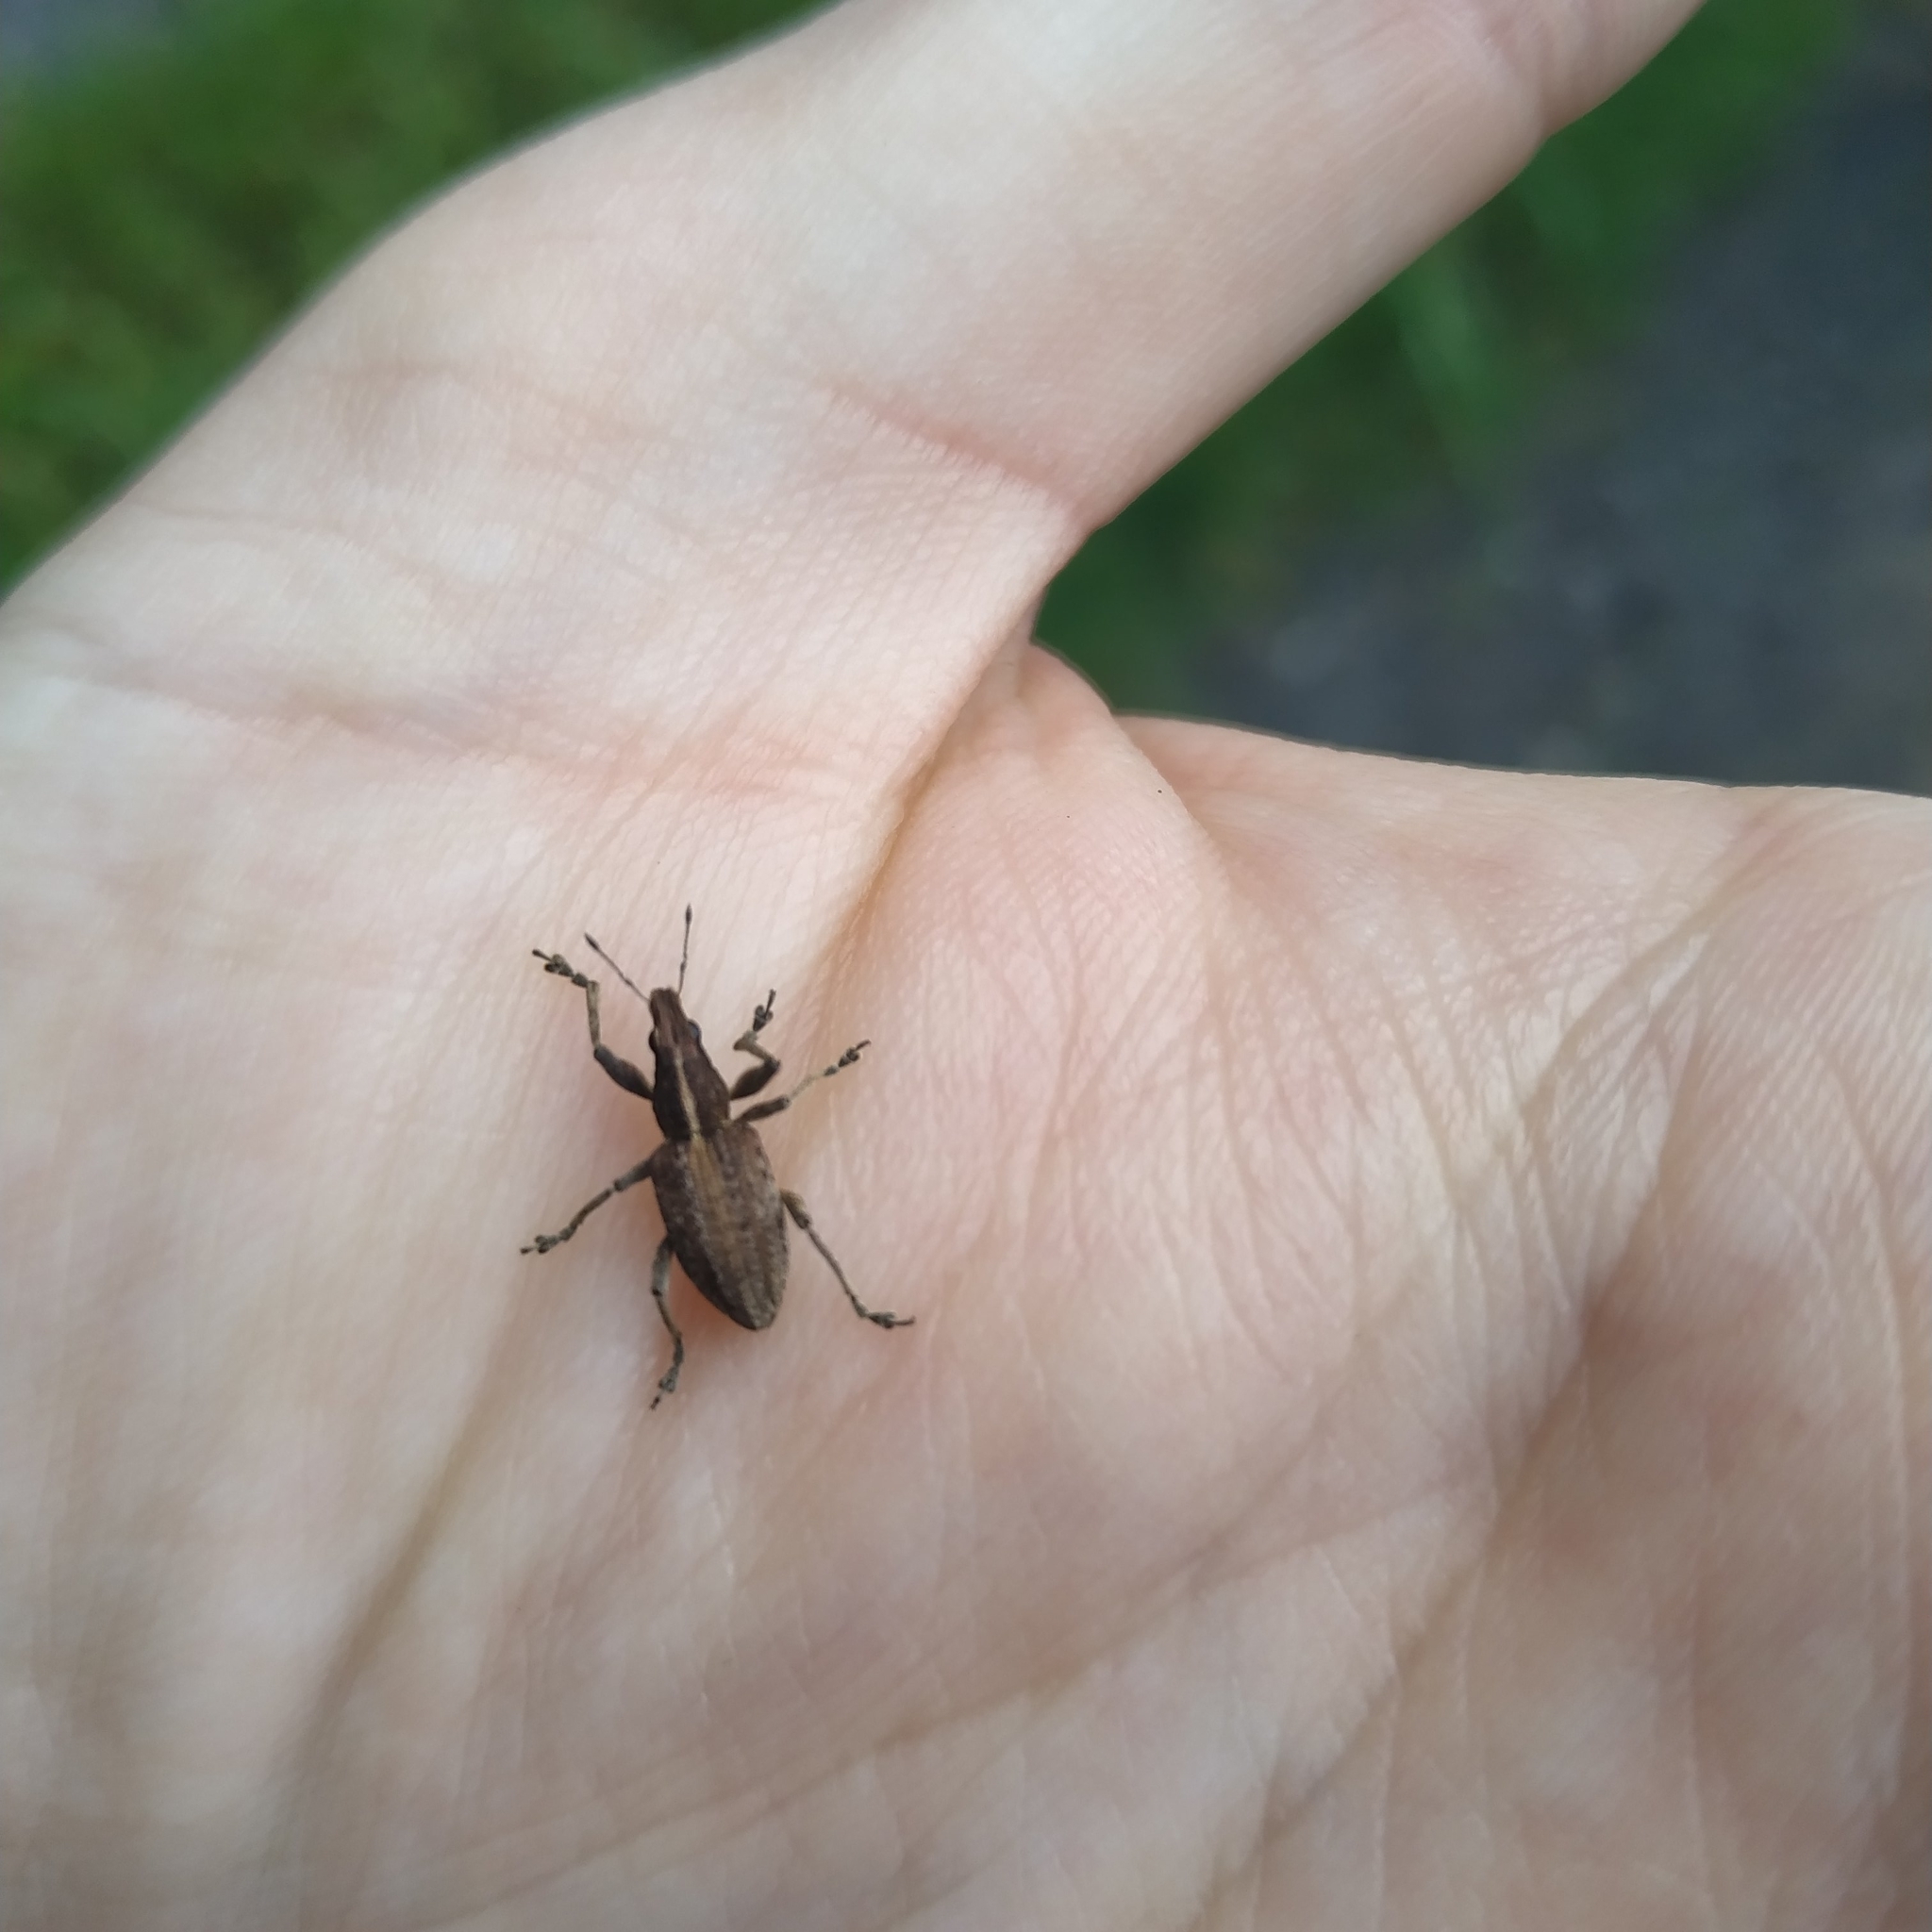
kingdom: Animalia
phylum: Arthropoda
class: Insecta
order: Coleoptera
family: Curculionidae
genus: Charagmus
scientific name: Charagmus gressorius
